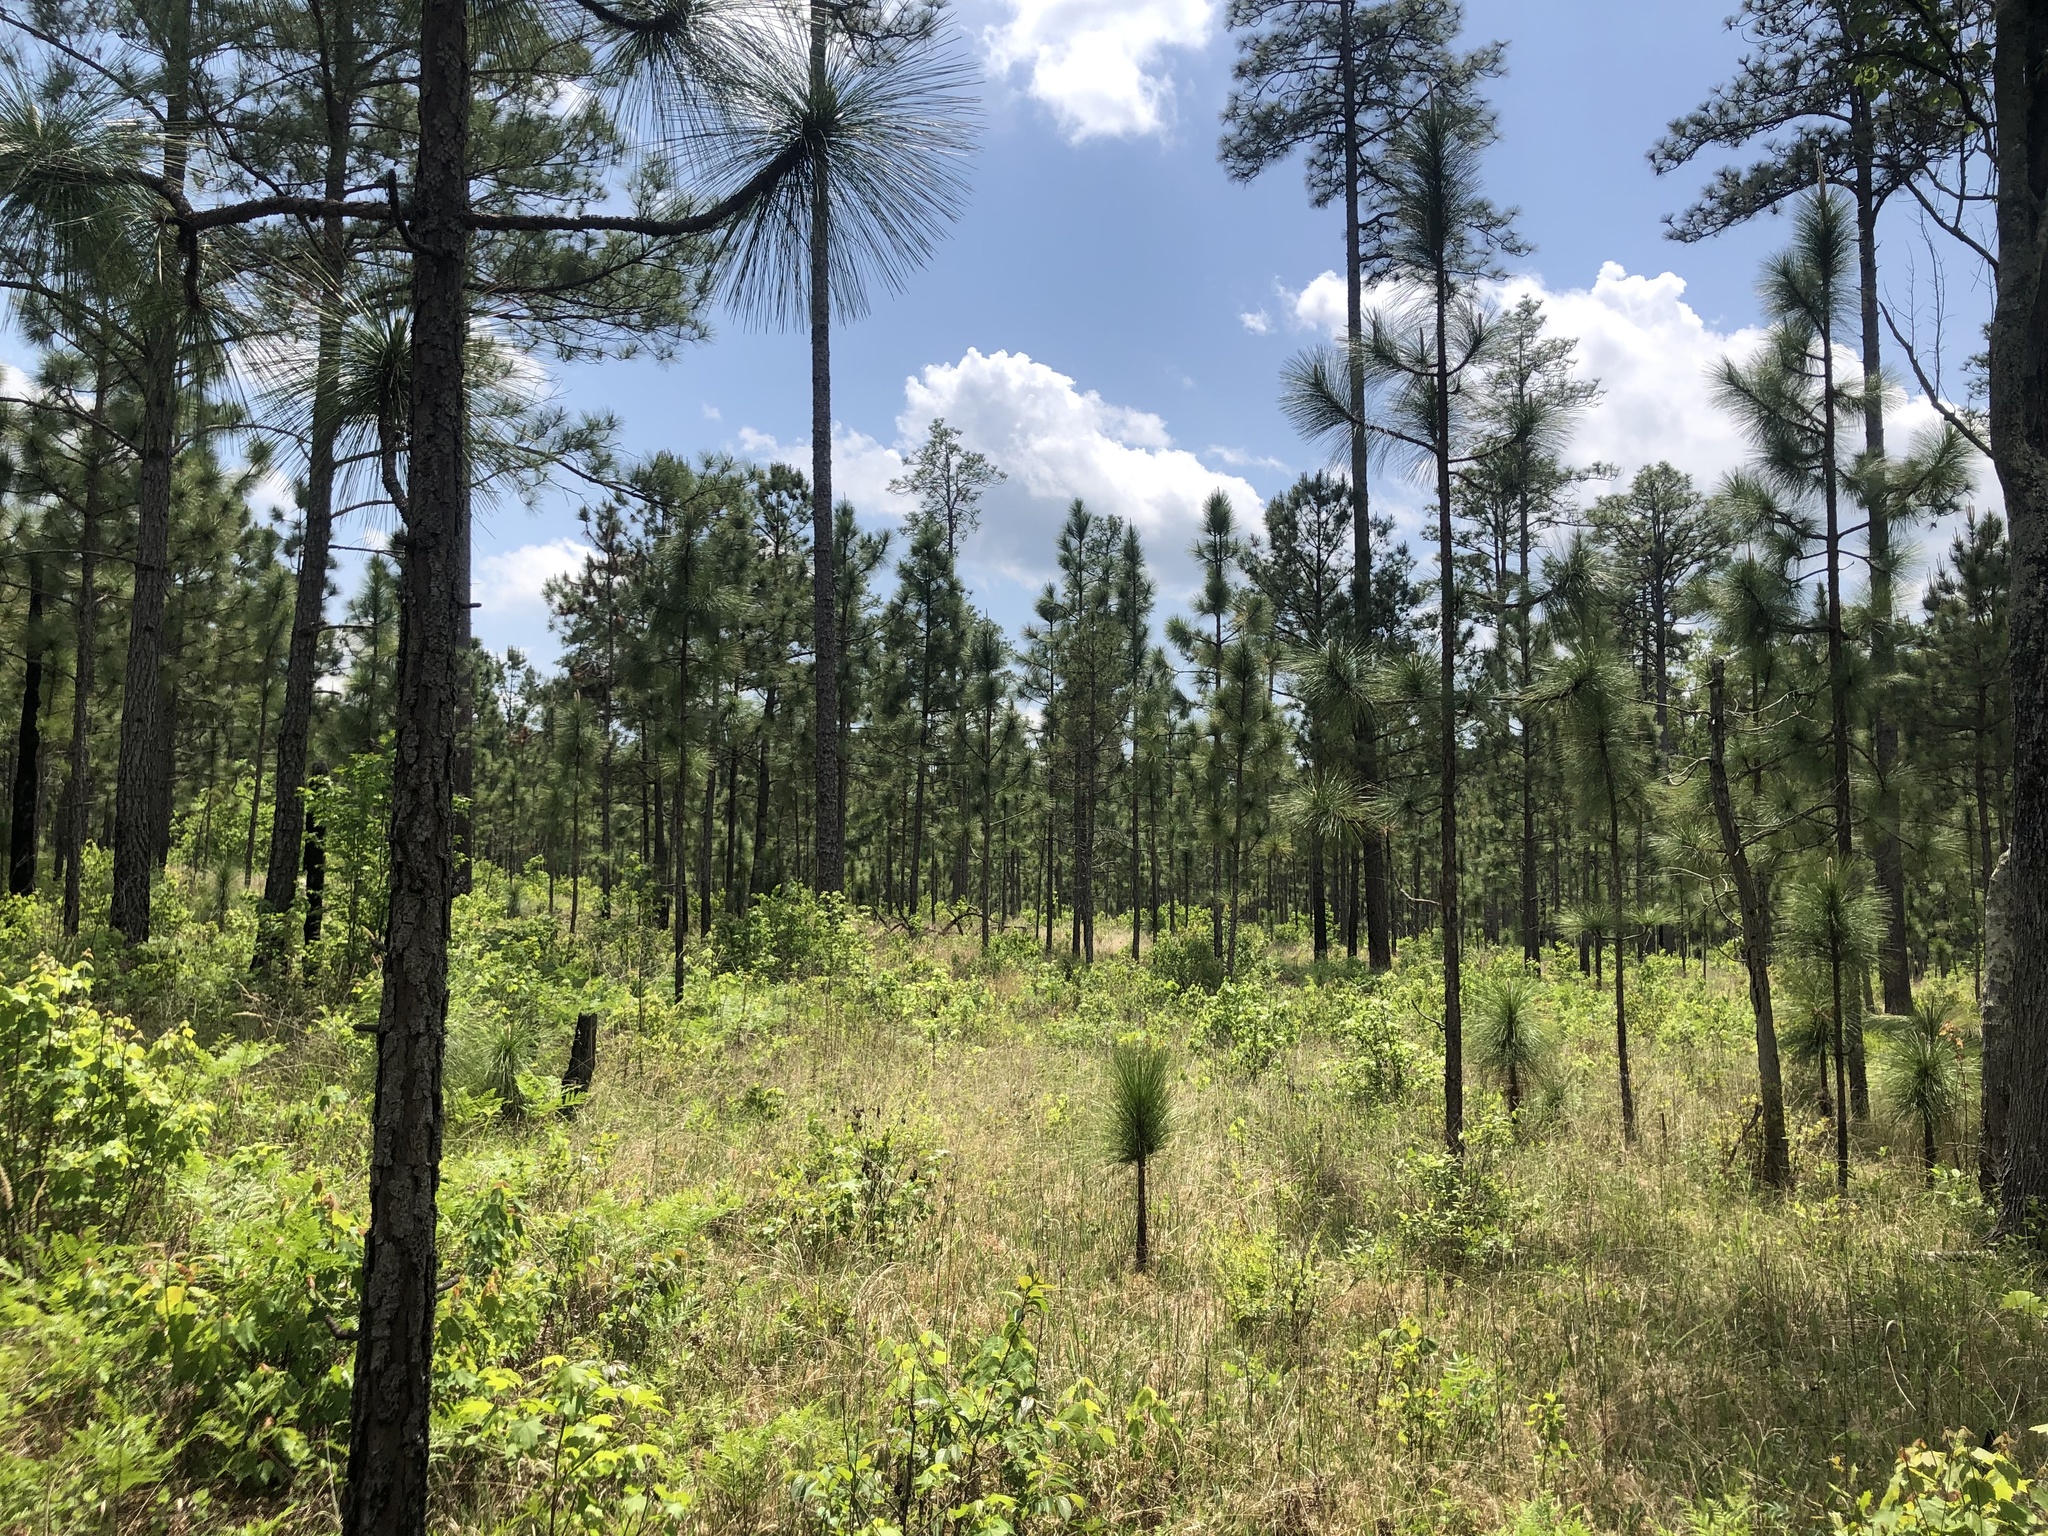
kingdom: Plantae
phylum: Tracheophyta
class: Pinopsida
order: Pinales
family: Pinaceae
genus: Pinus
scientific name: Pinus palustris
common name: Longleaf pine
